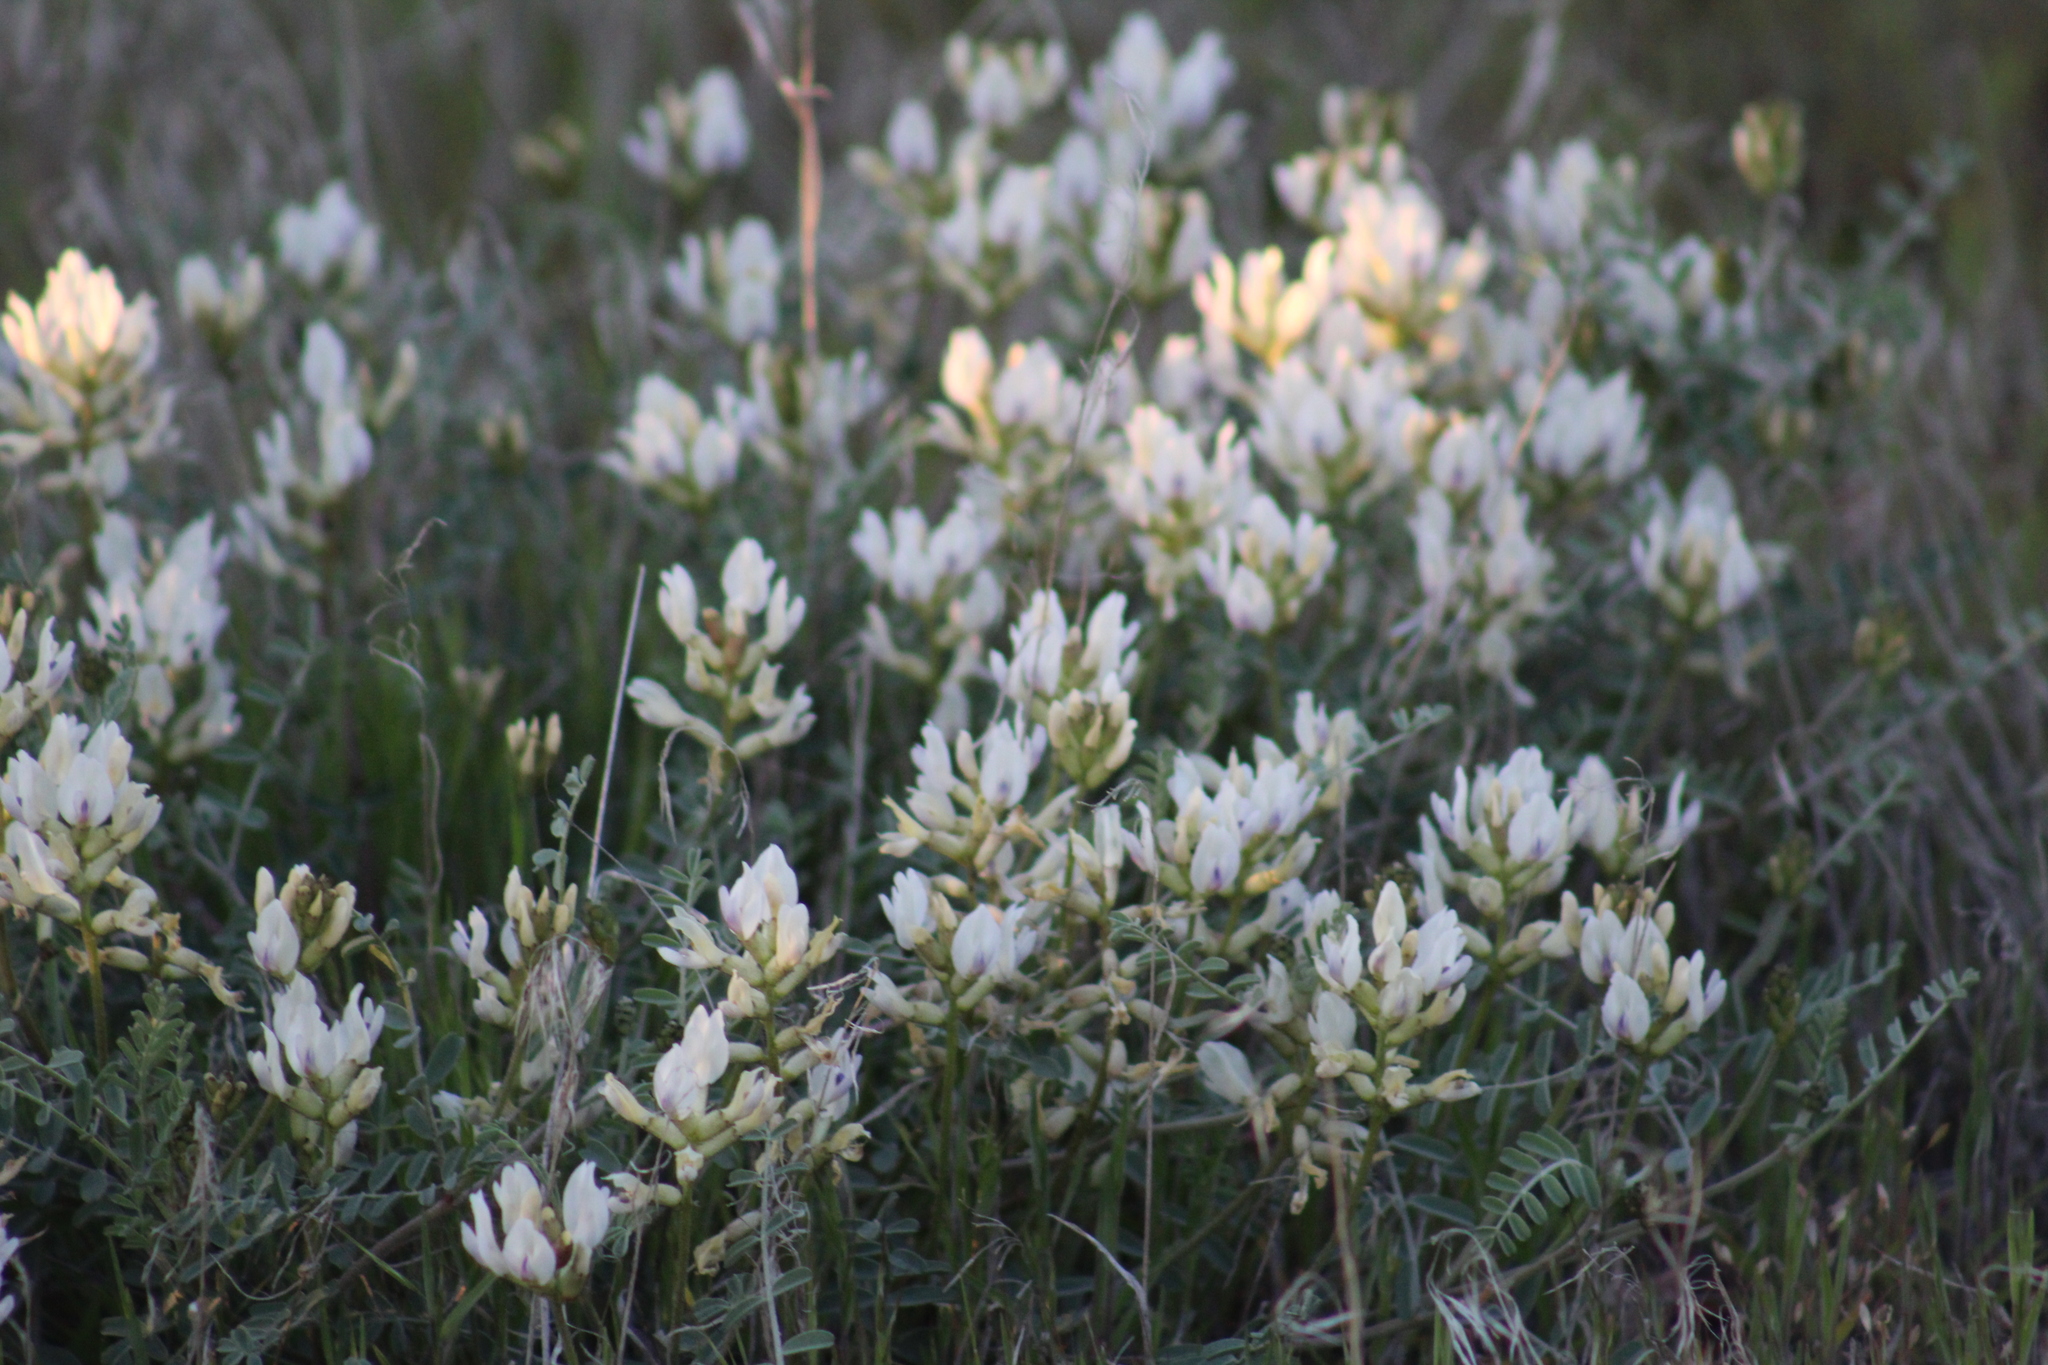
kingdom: Plantae
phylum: Tracheophyta
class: Magnoliopsida
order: Fabales
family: Fabaceae
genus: Astragalus
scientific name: Astragalus speirocarpus
